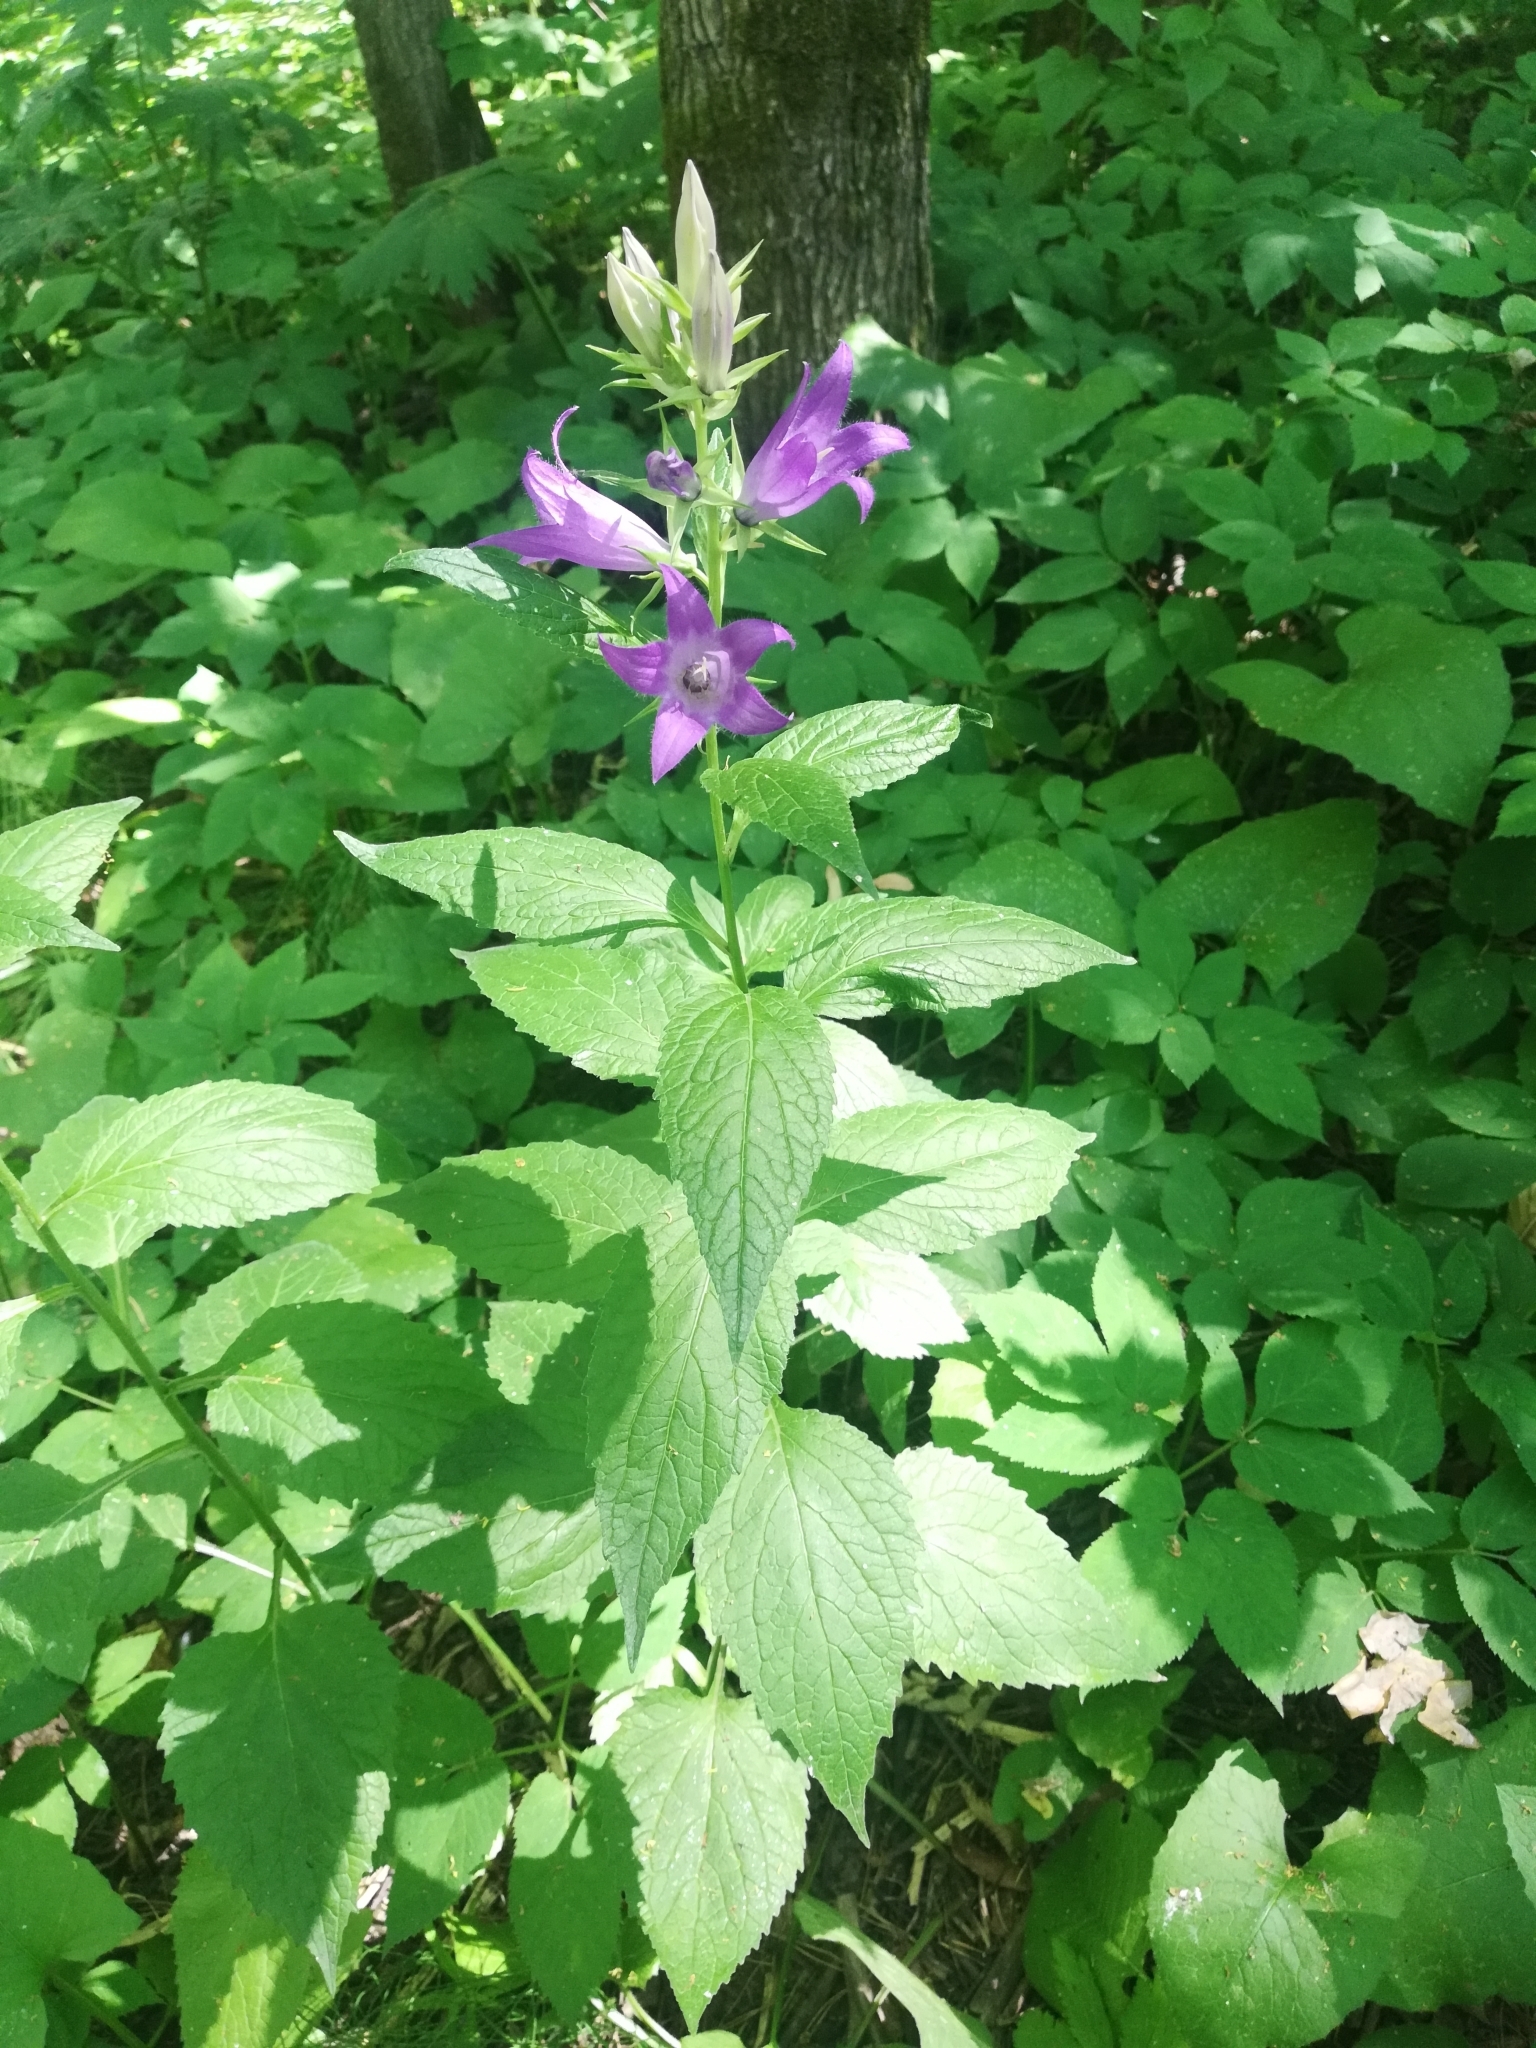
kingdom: Plantae
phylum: Tracheophyta
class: Magnoliopsida
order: Asterales
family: Campanulaceae
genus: Campanula
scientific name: Campanula latifolia
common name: Giant bellflower
